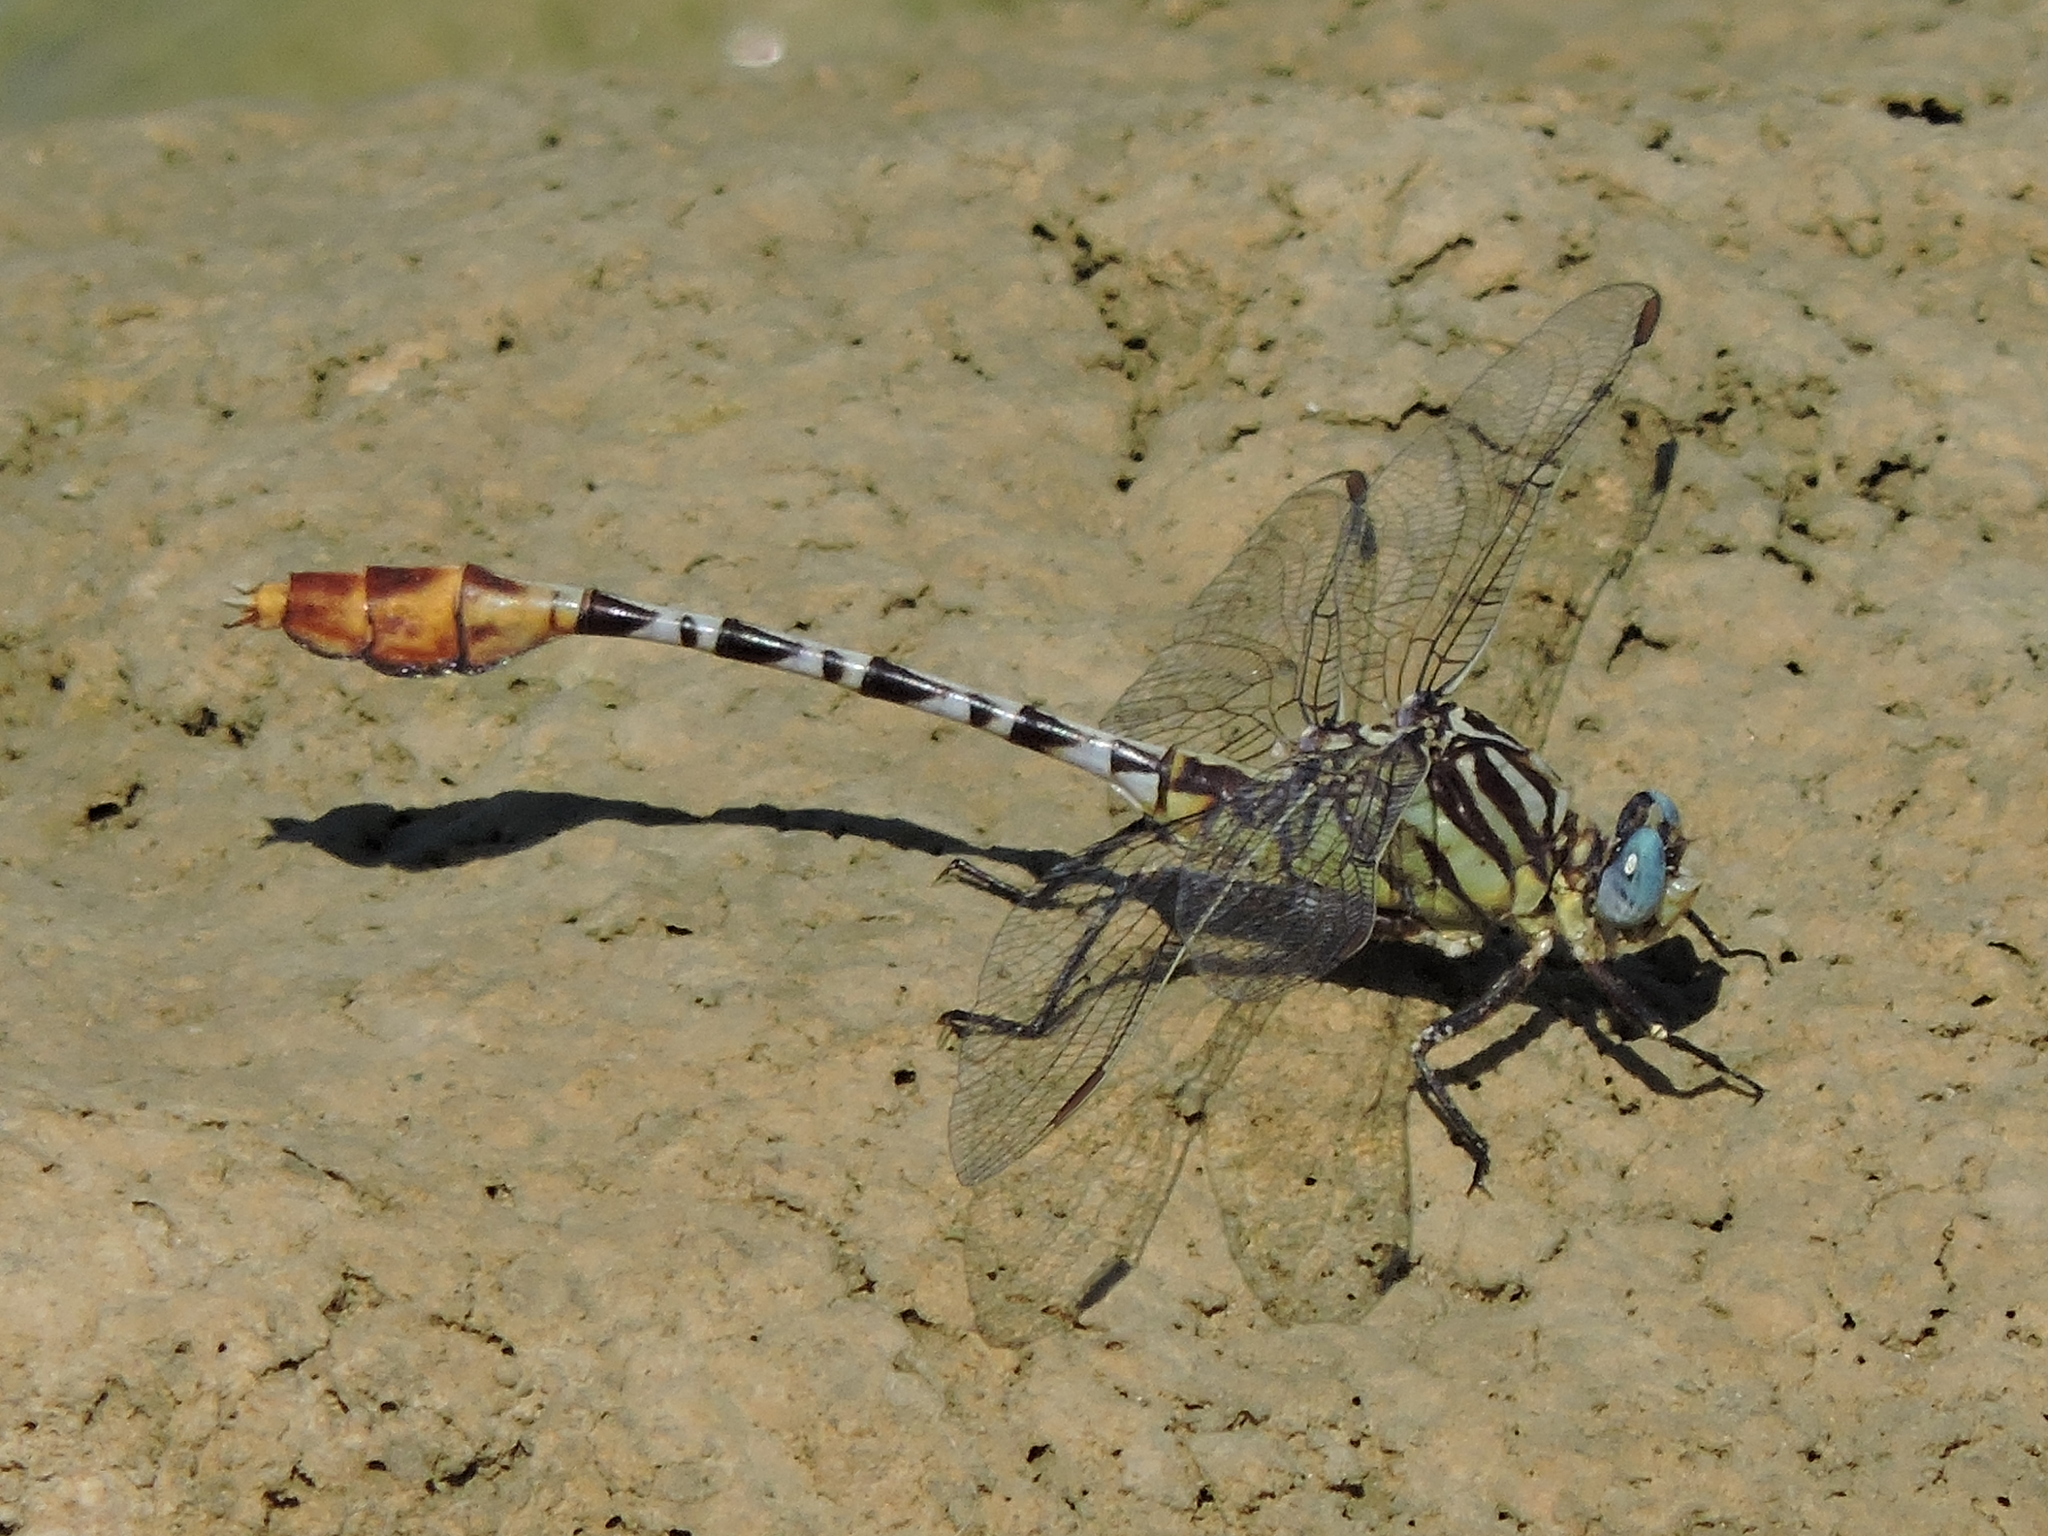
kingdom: Animalia
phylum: Arthropoda
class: Insecta
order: Odonata
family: Gomphidae
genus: Dromogomphus
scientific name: Dromogomphus spoliatus
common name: Flag-tailed spinyleg
